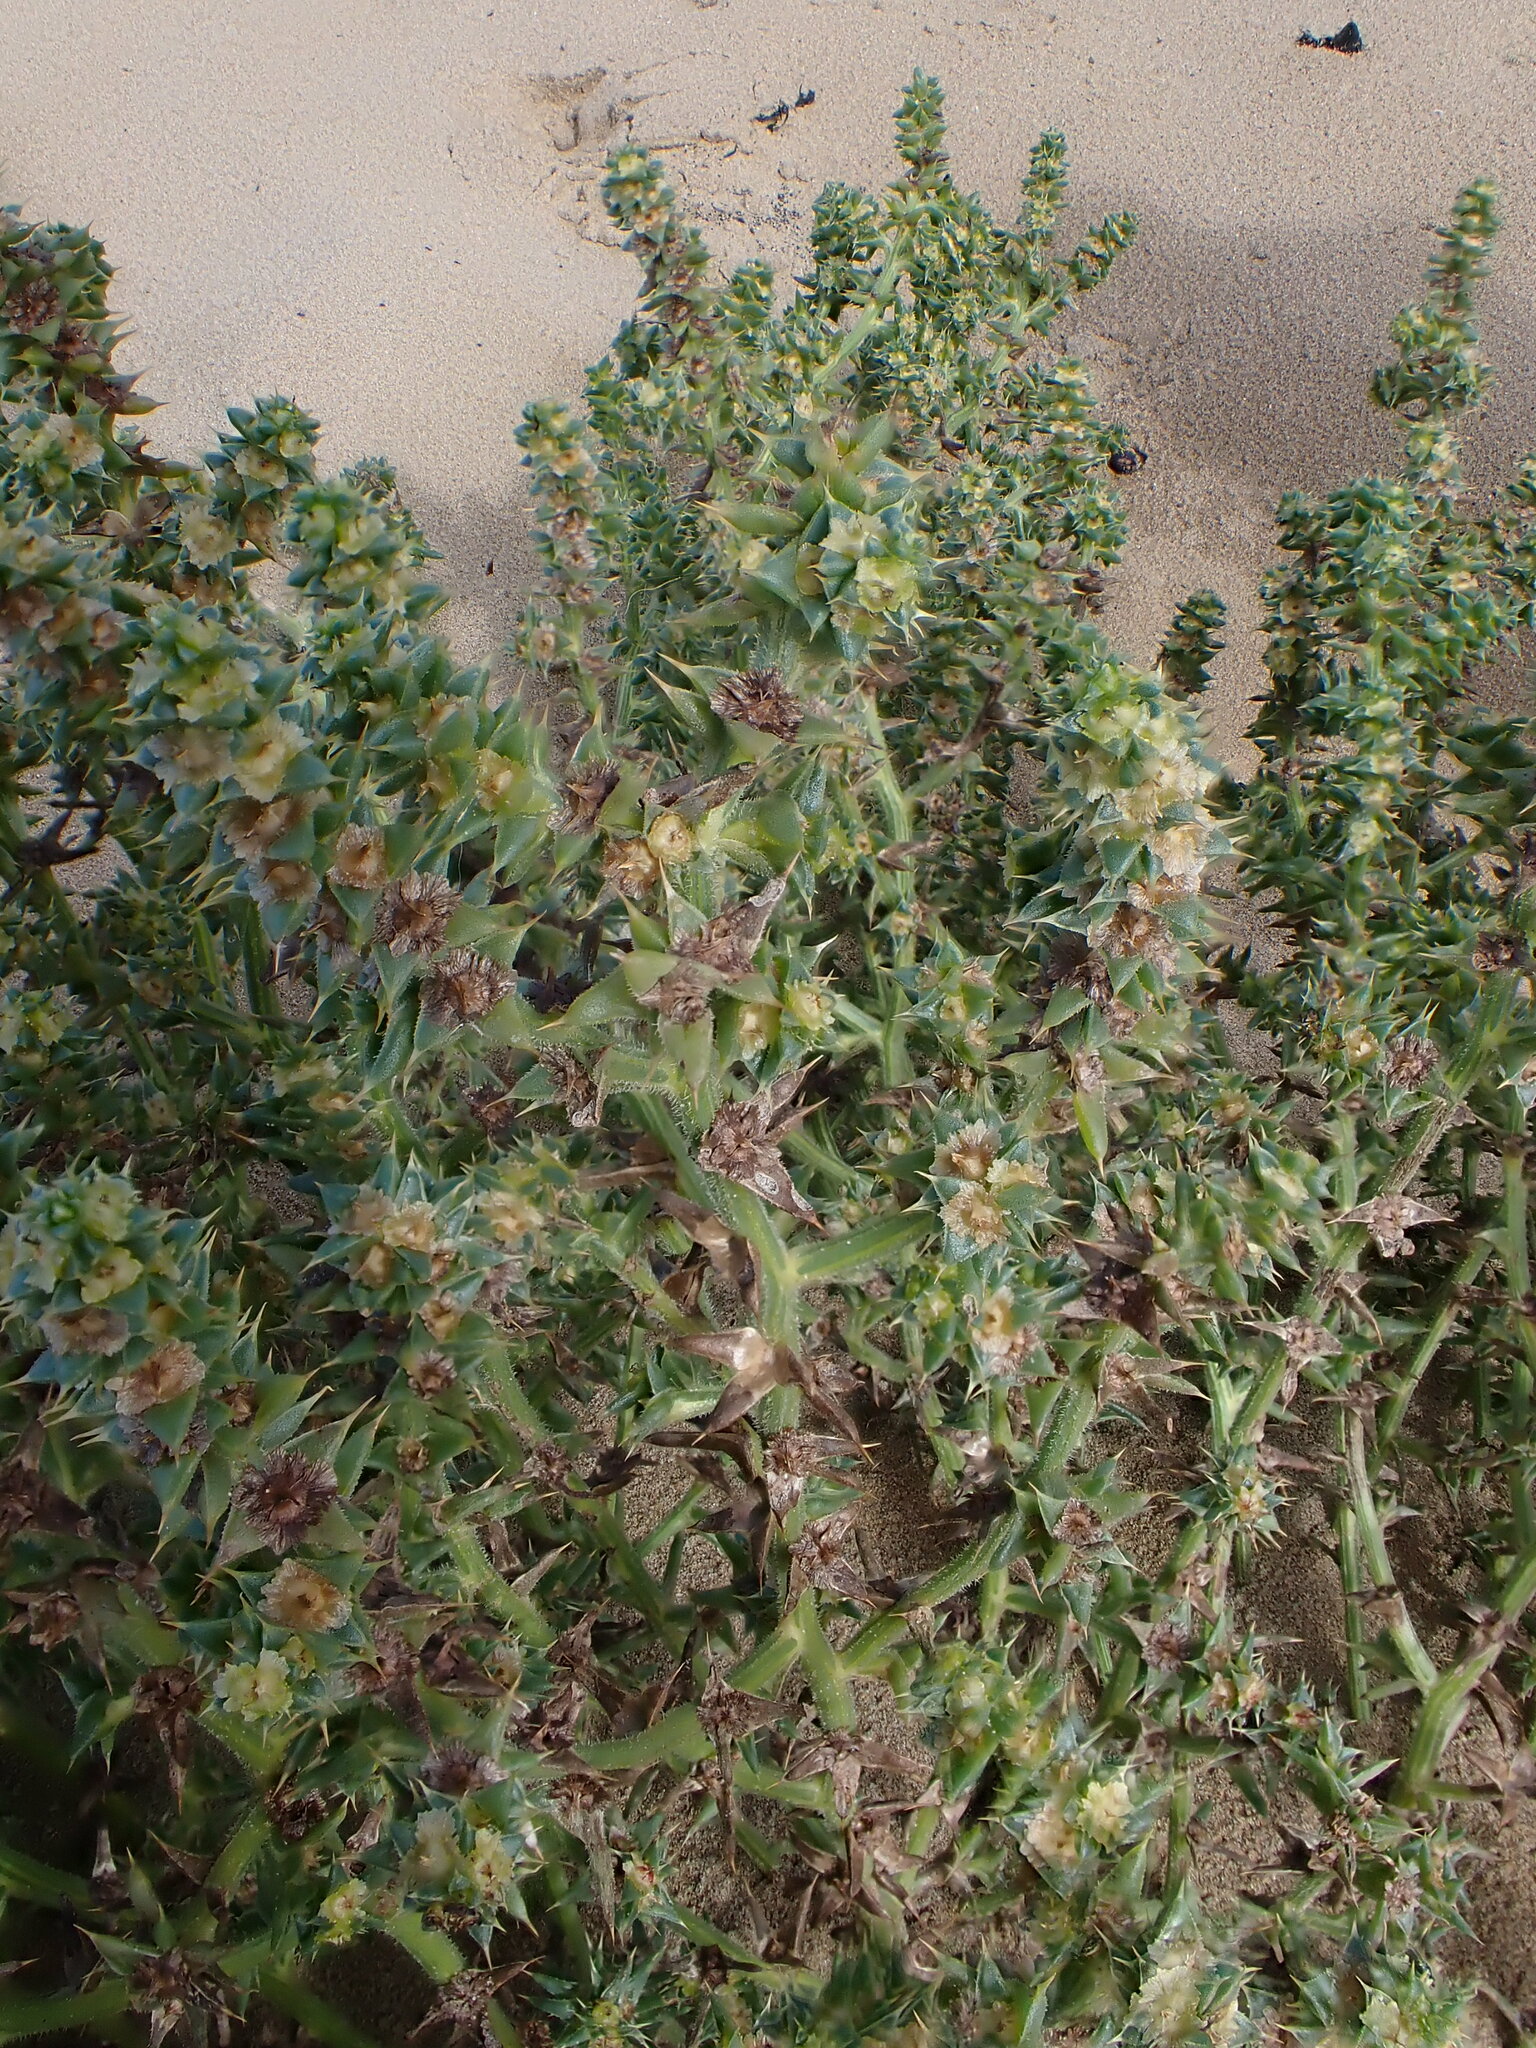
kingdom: Plantae
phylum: Tracheophyta
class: Magnoliopsida
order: Caryophyllales
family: Amaranthaceae
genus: Salsola
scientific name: Salsola kali
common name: Saltwort
